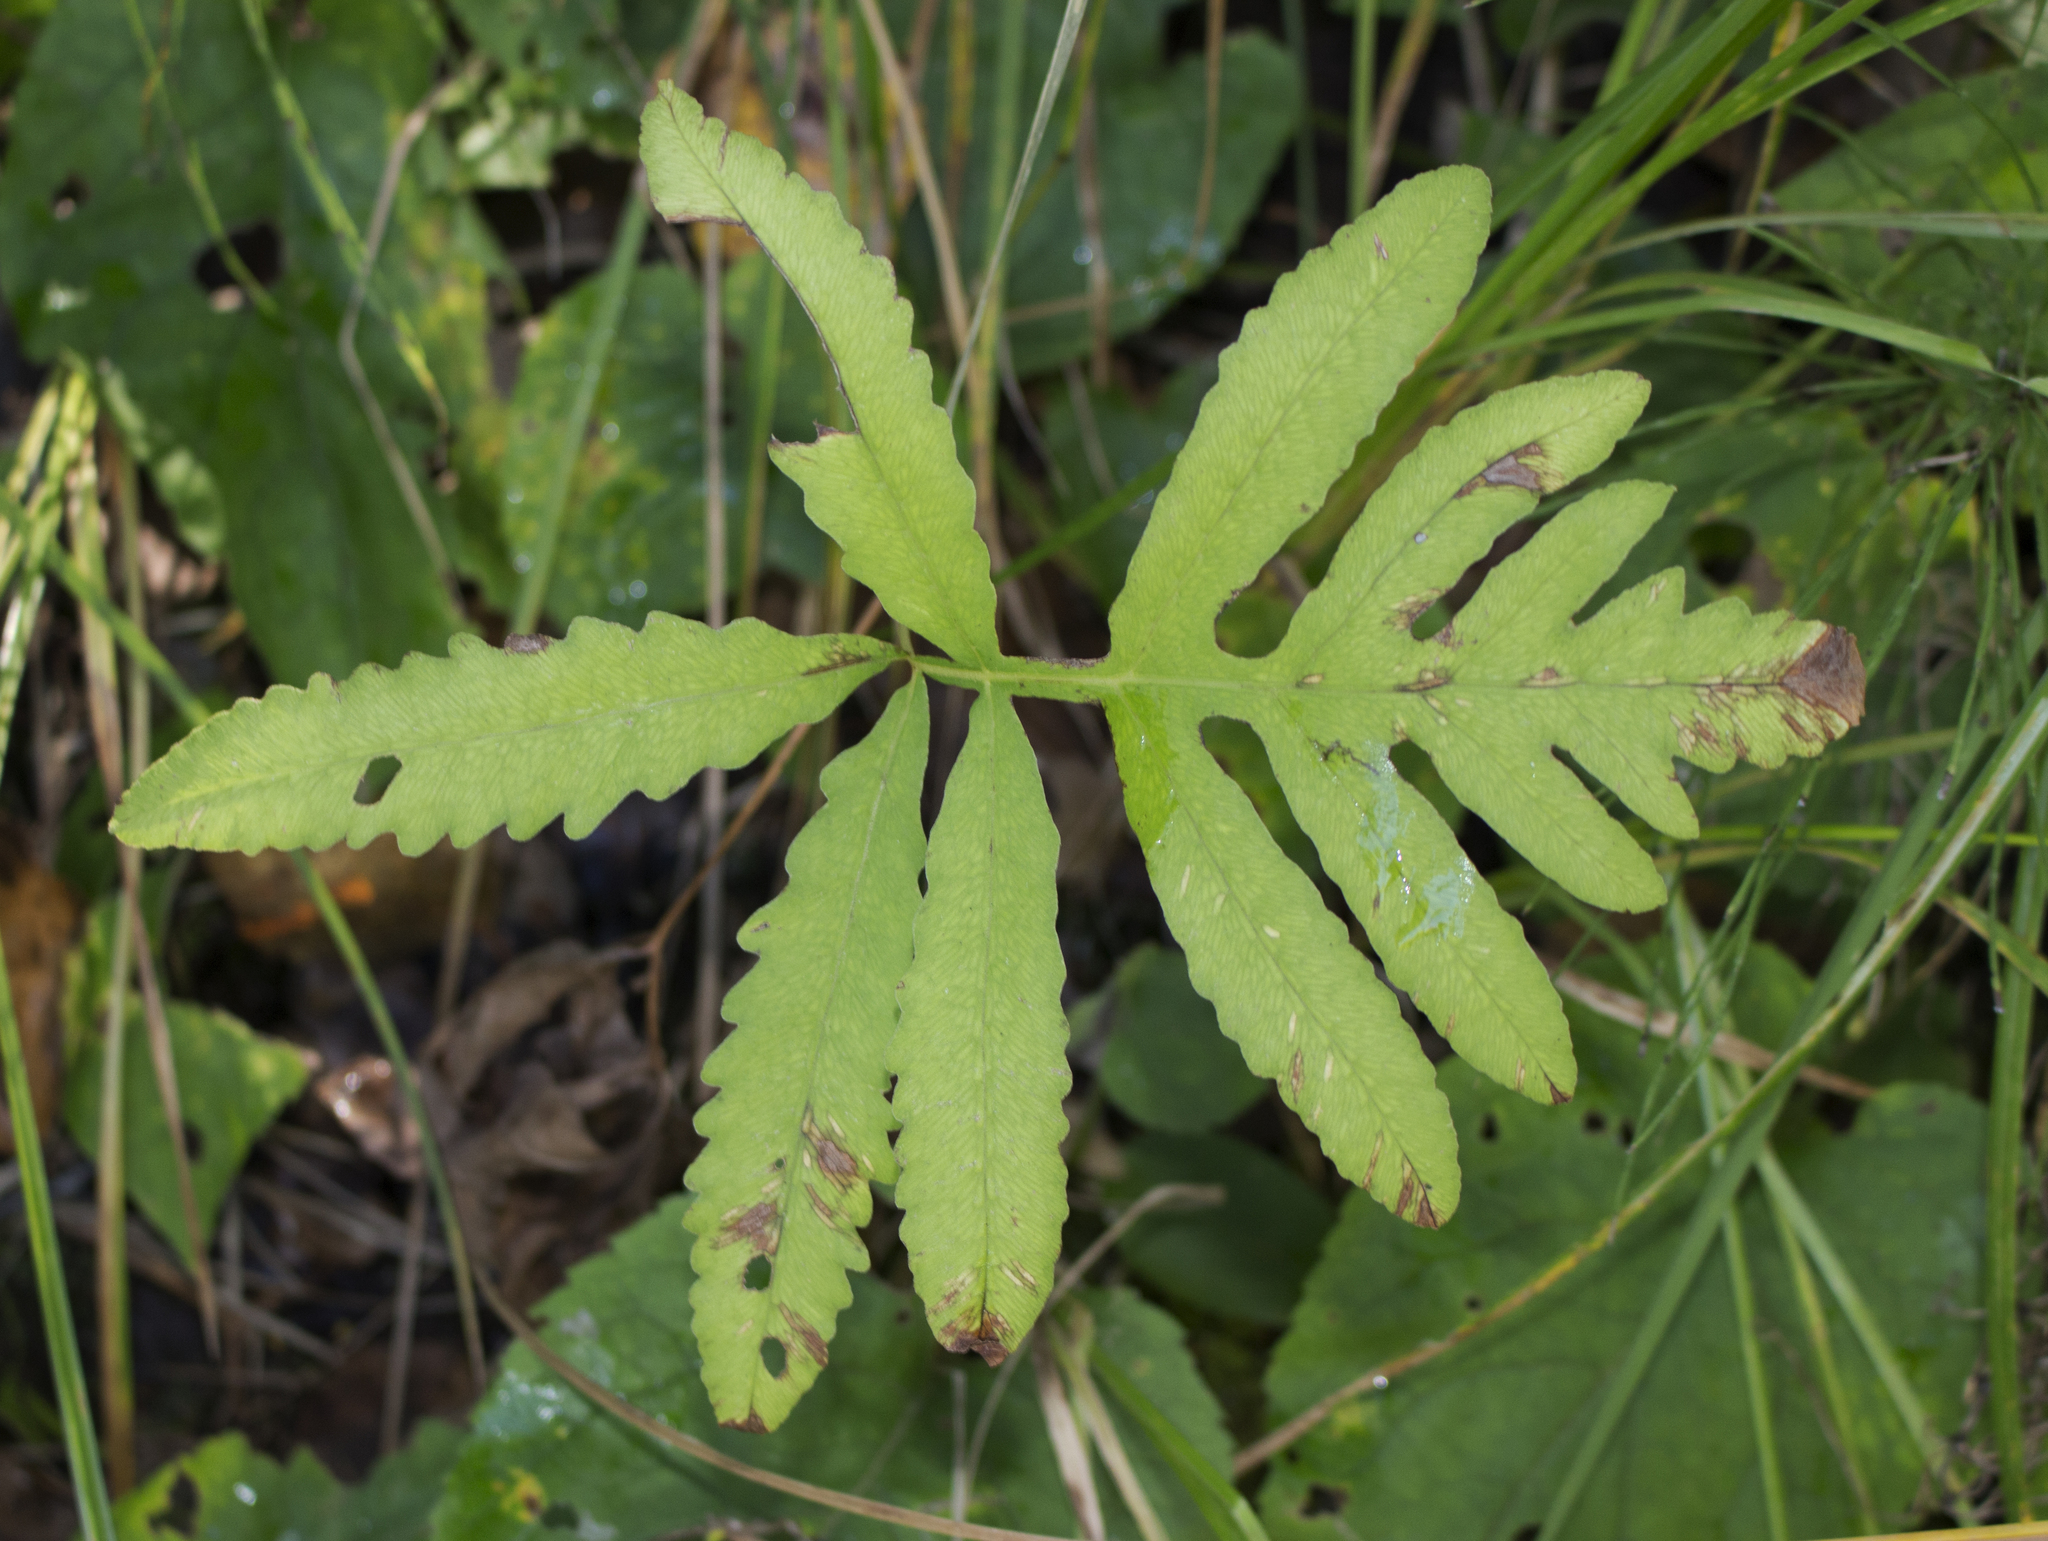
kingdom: Plantae
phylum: Tracheophyta
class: Polypodiopsida
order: Polypodiales
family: Onocleaceae
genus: Onoclea
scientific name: Onoclea sensibilis
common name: Sensitive fern
